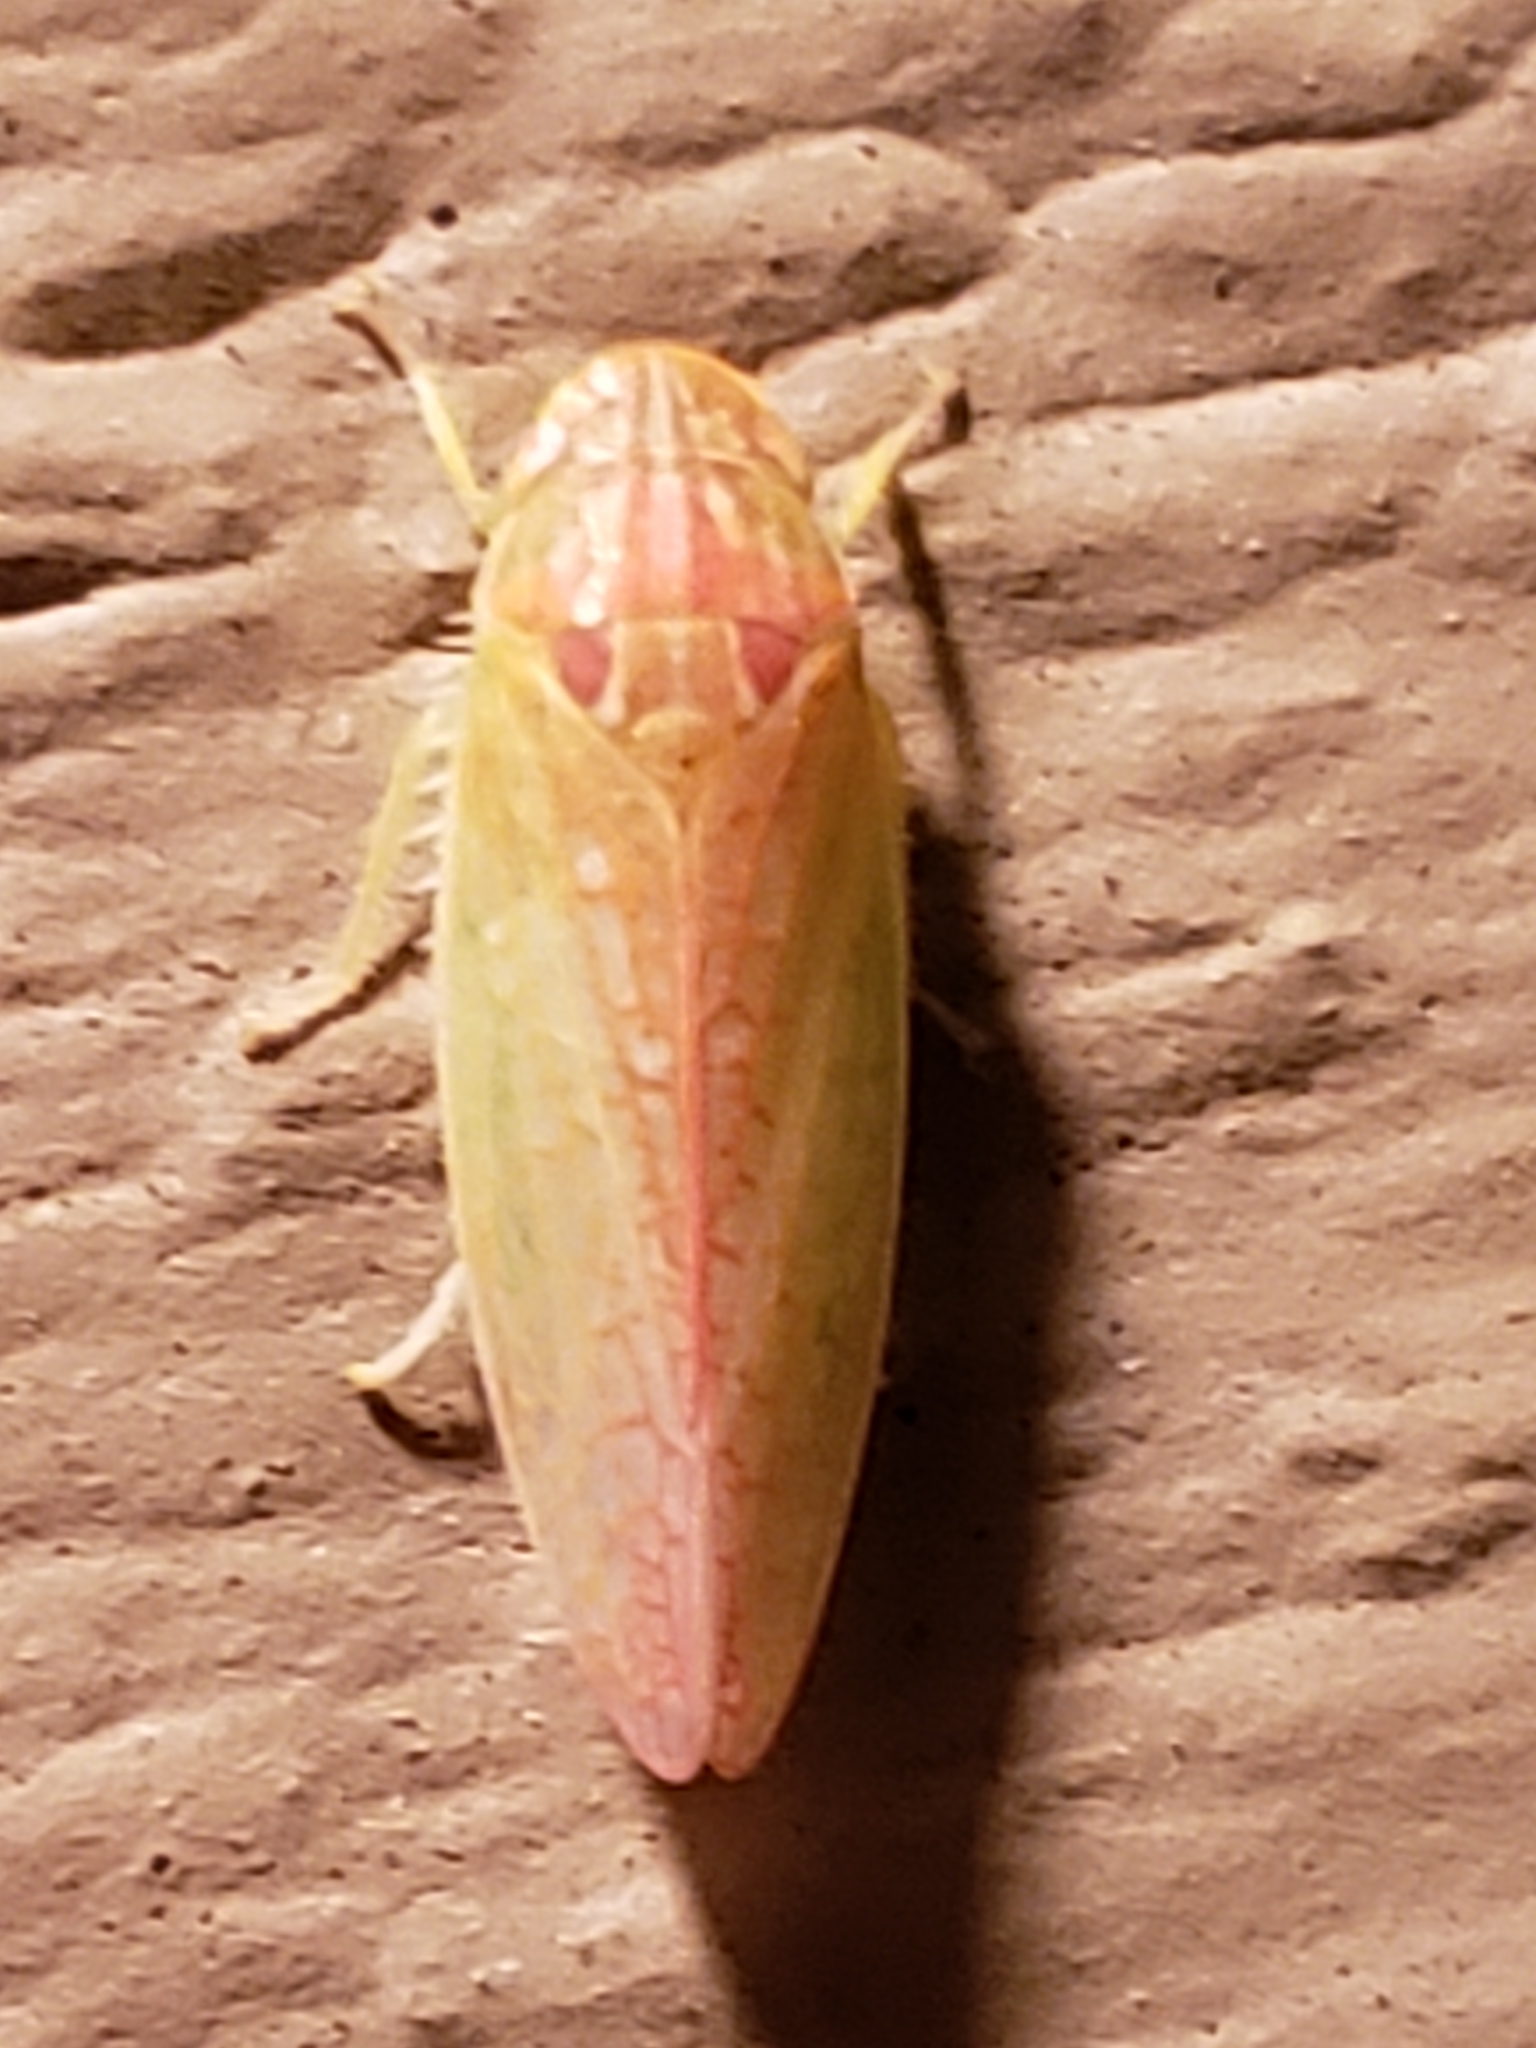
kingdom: Animalia
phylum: Arthropoda
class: Insecta
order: Hemiptera
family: Cicadellidae
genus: Gyponana
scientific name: Gyponana octolineata
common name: Eight-lined leafhopper
